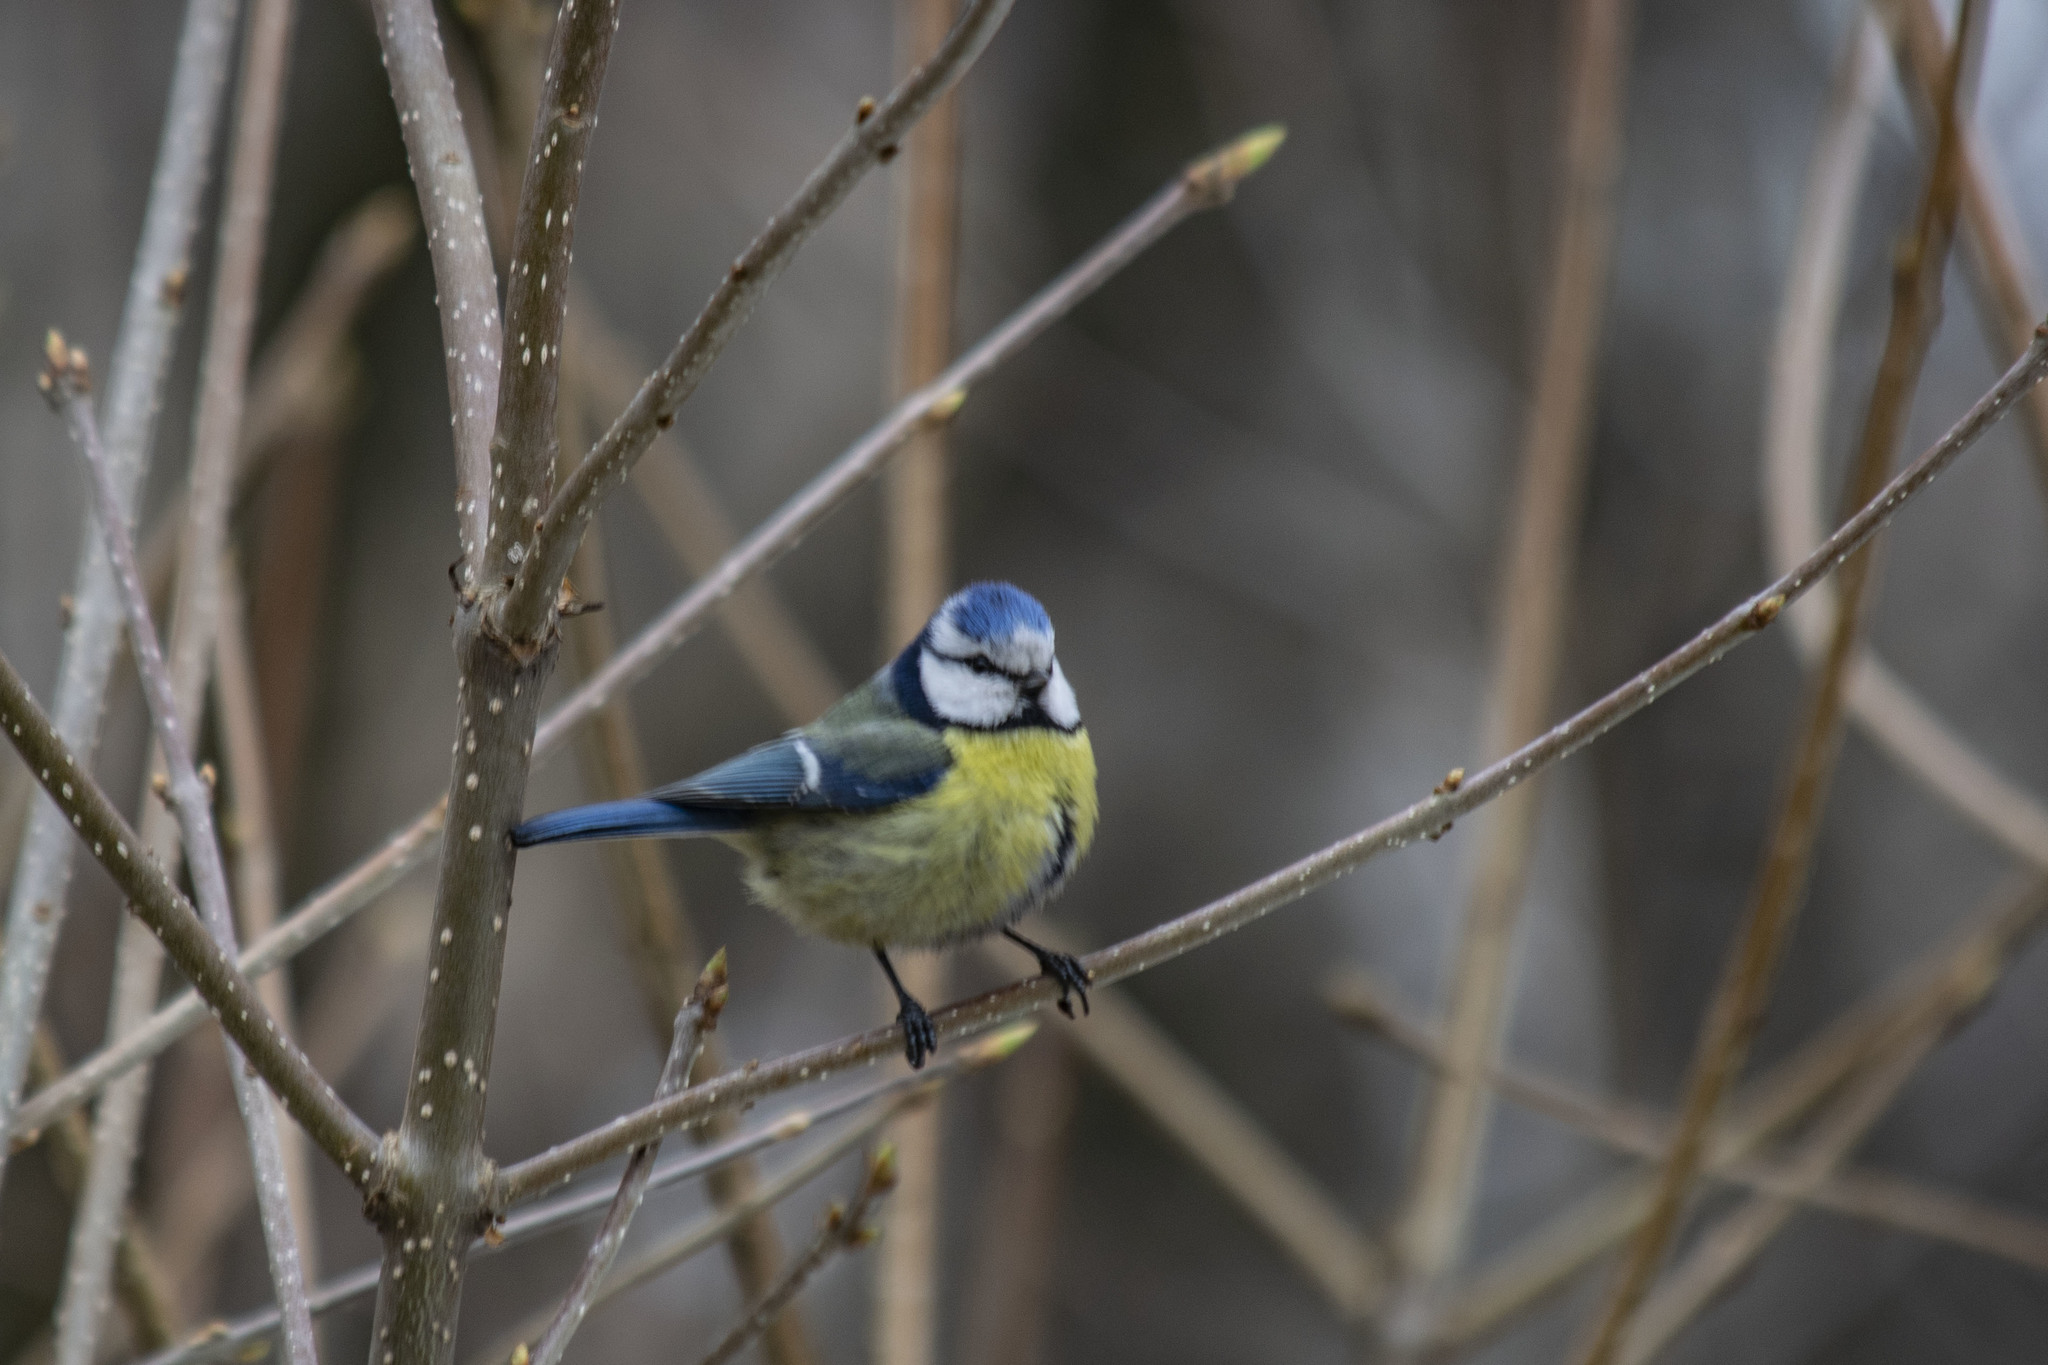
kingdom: Animalia
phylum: Chordata
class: Aves
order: Passeriformes
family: Paridae
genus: Cyanistes
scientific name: Cyanistes caeruleus
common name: Eurasian blue tit
